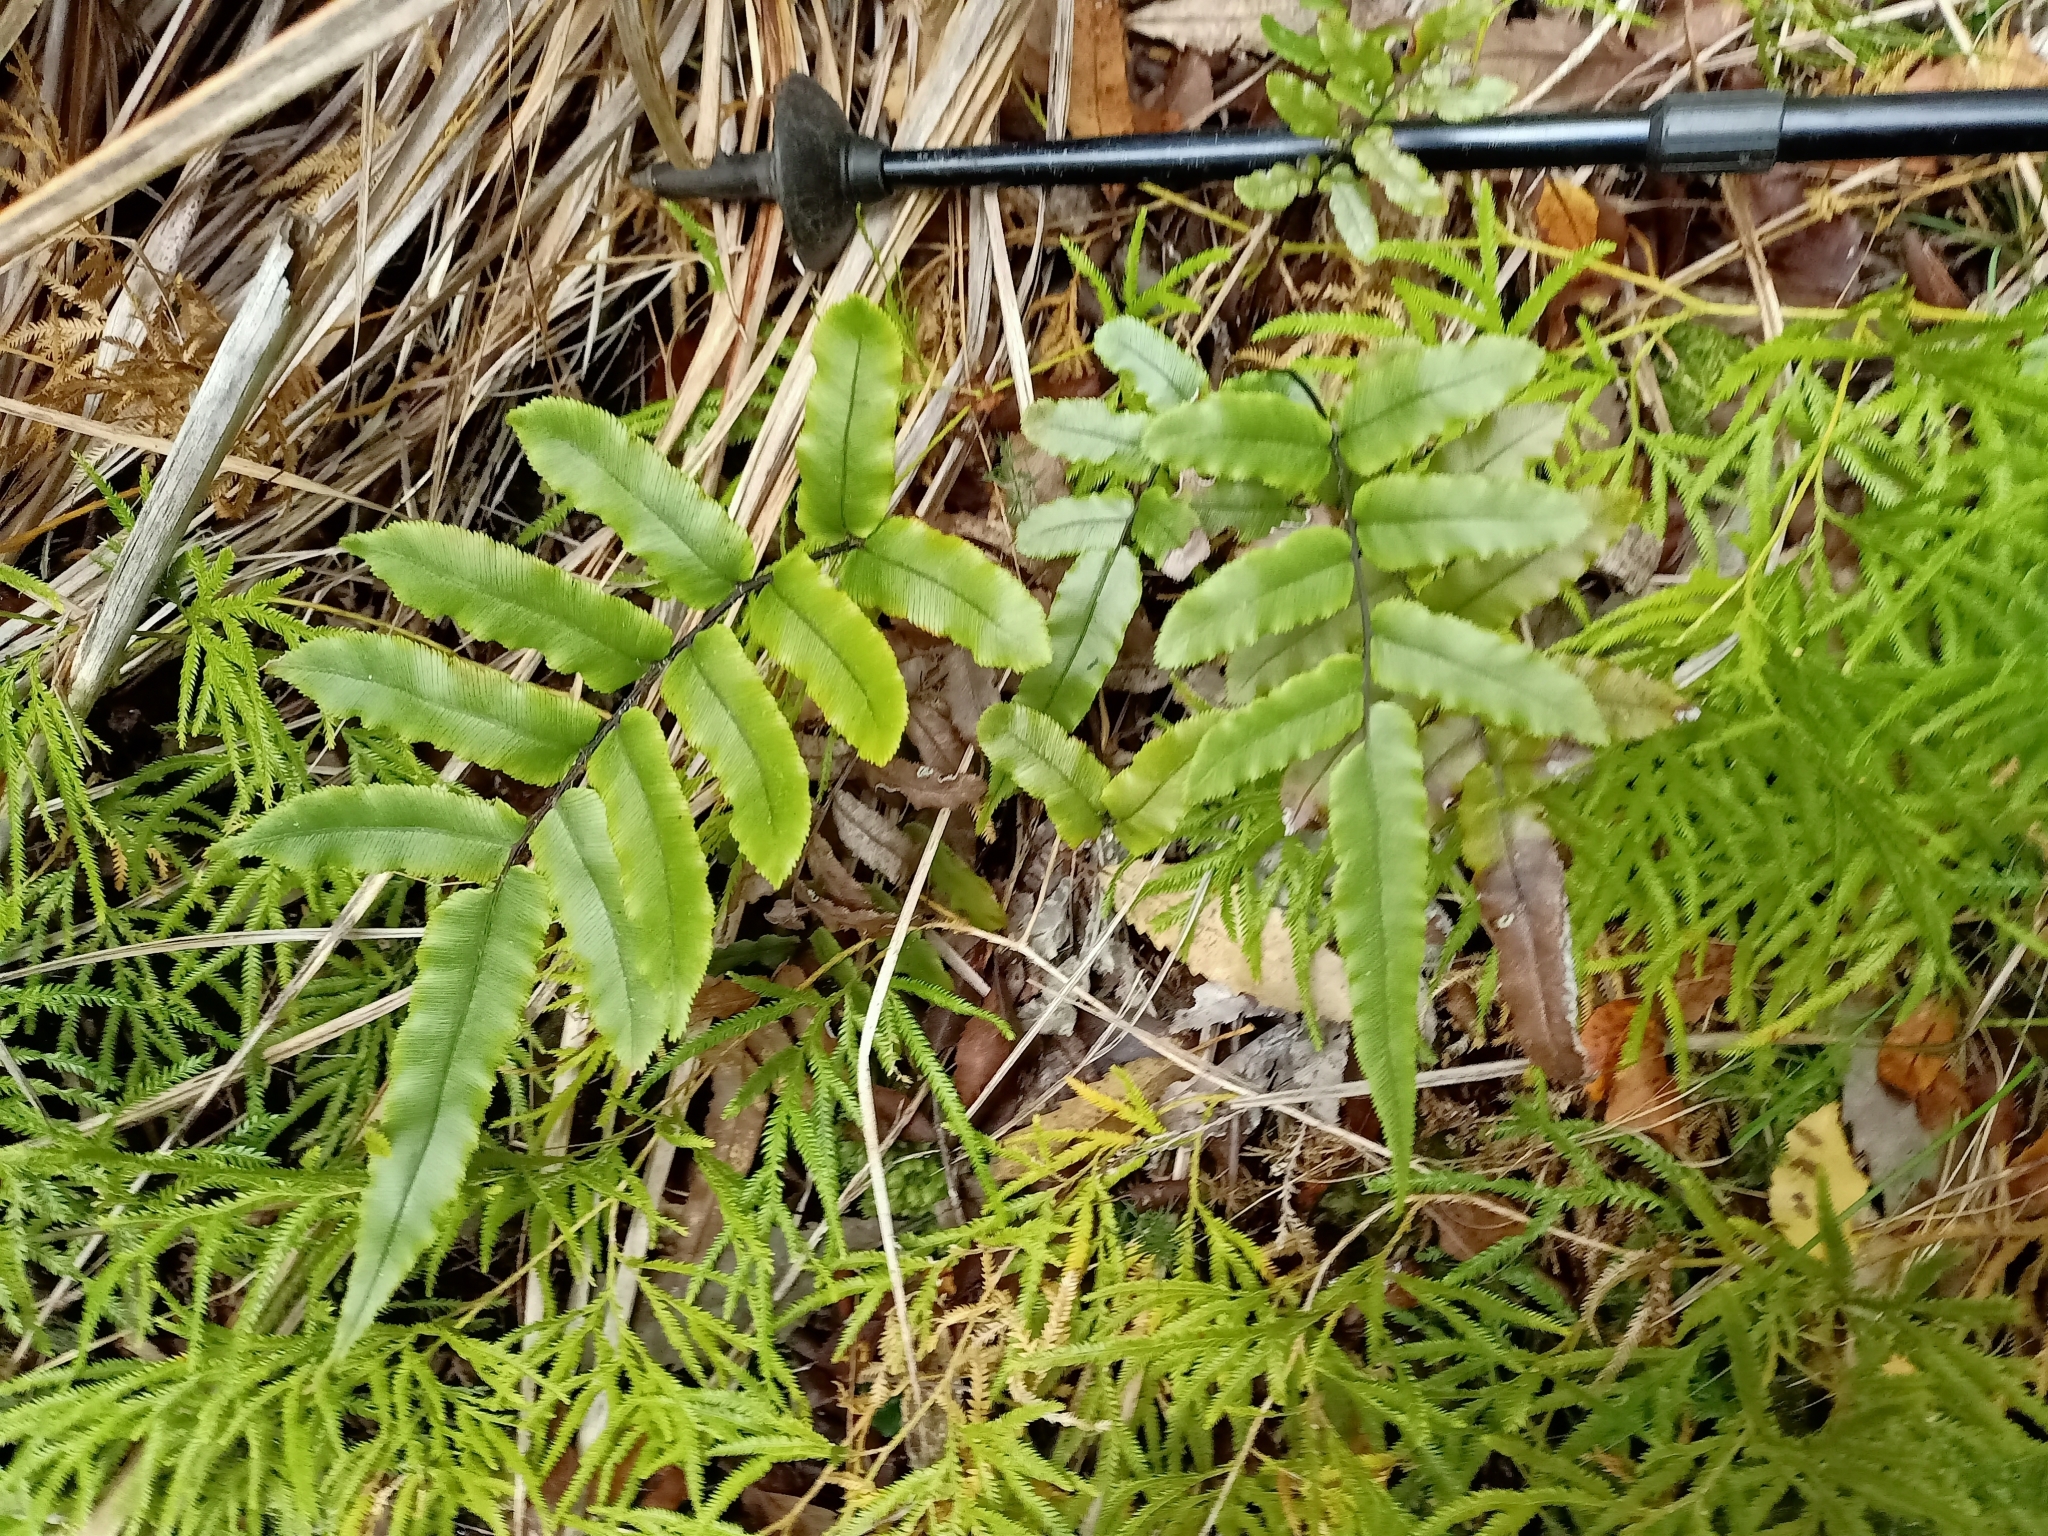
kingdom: Plantae
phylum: Tracheophyta
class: Polypodiopsida
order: Polypodiales
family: Blechnaceae
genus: Parablechnum
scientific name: Parablechnum procerum
